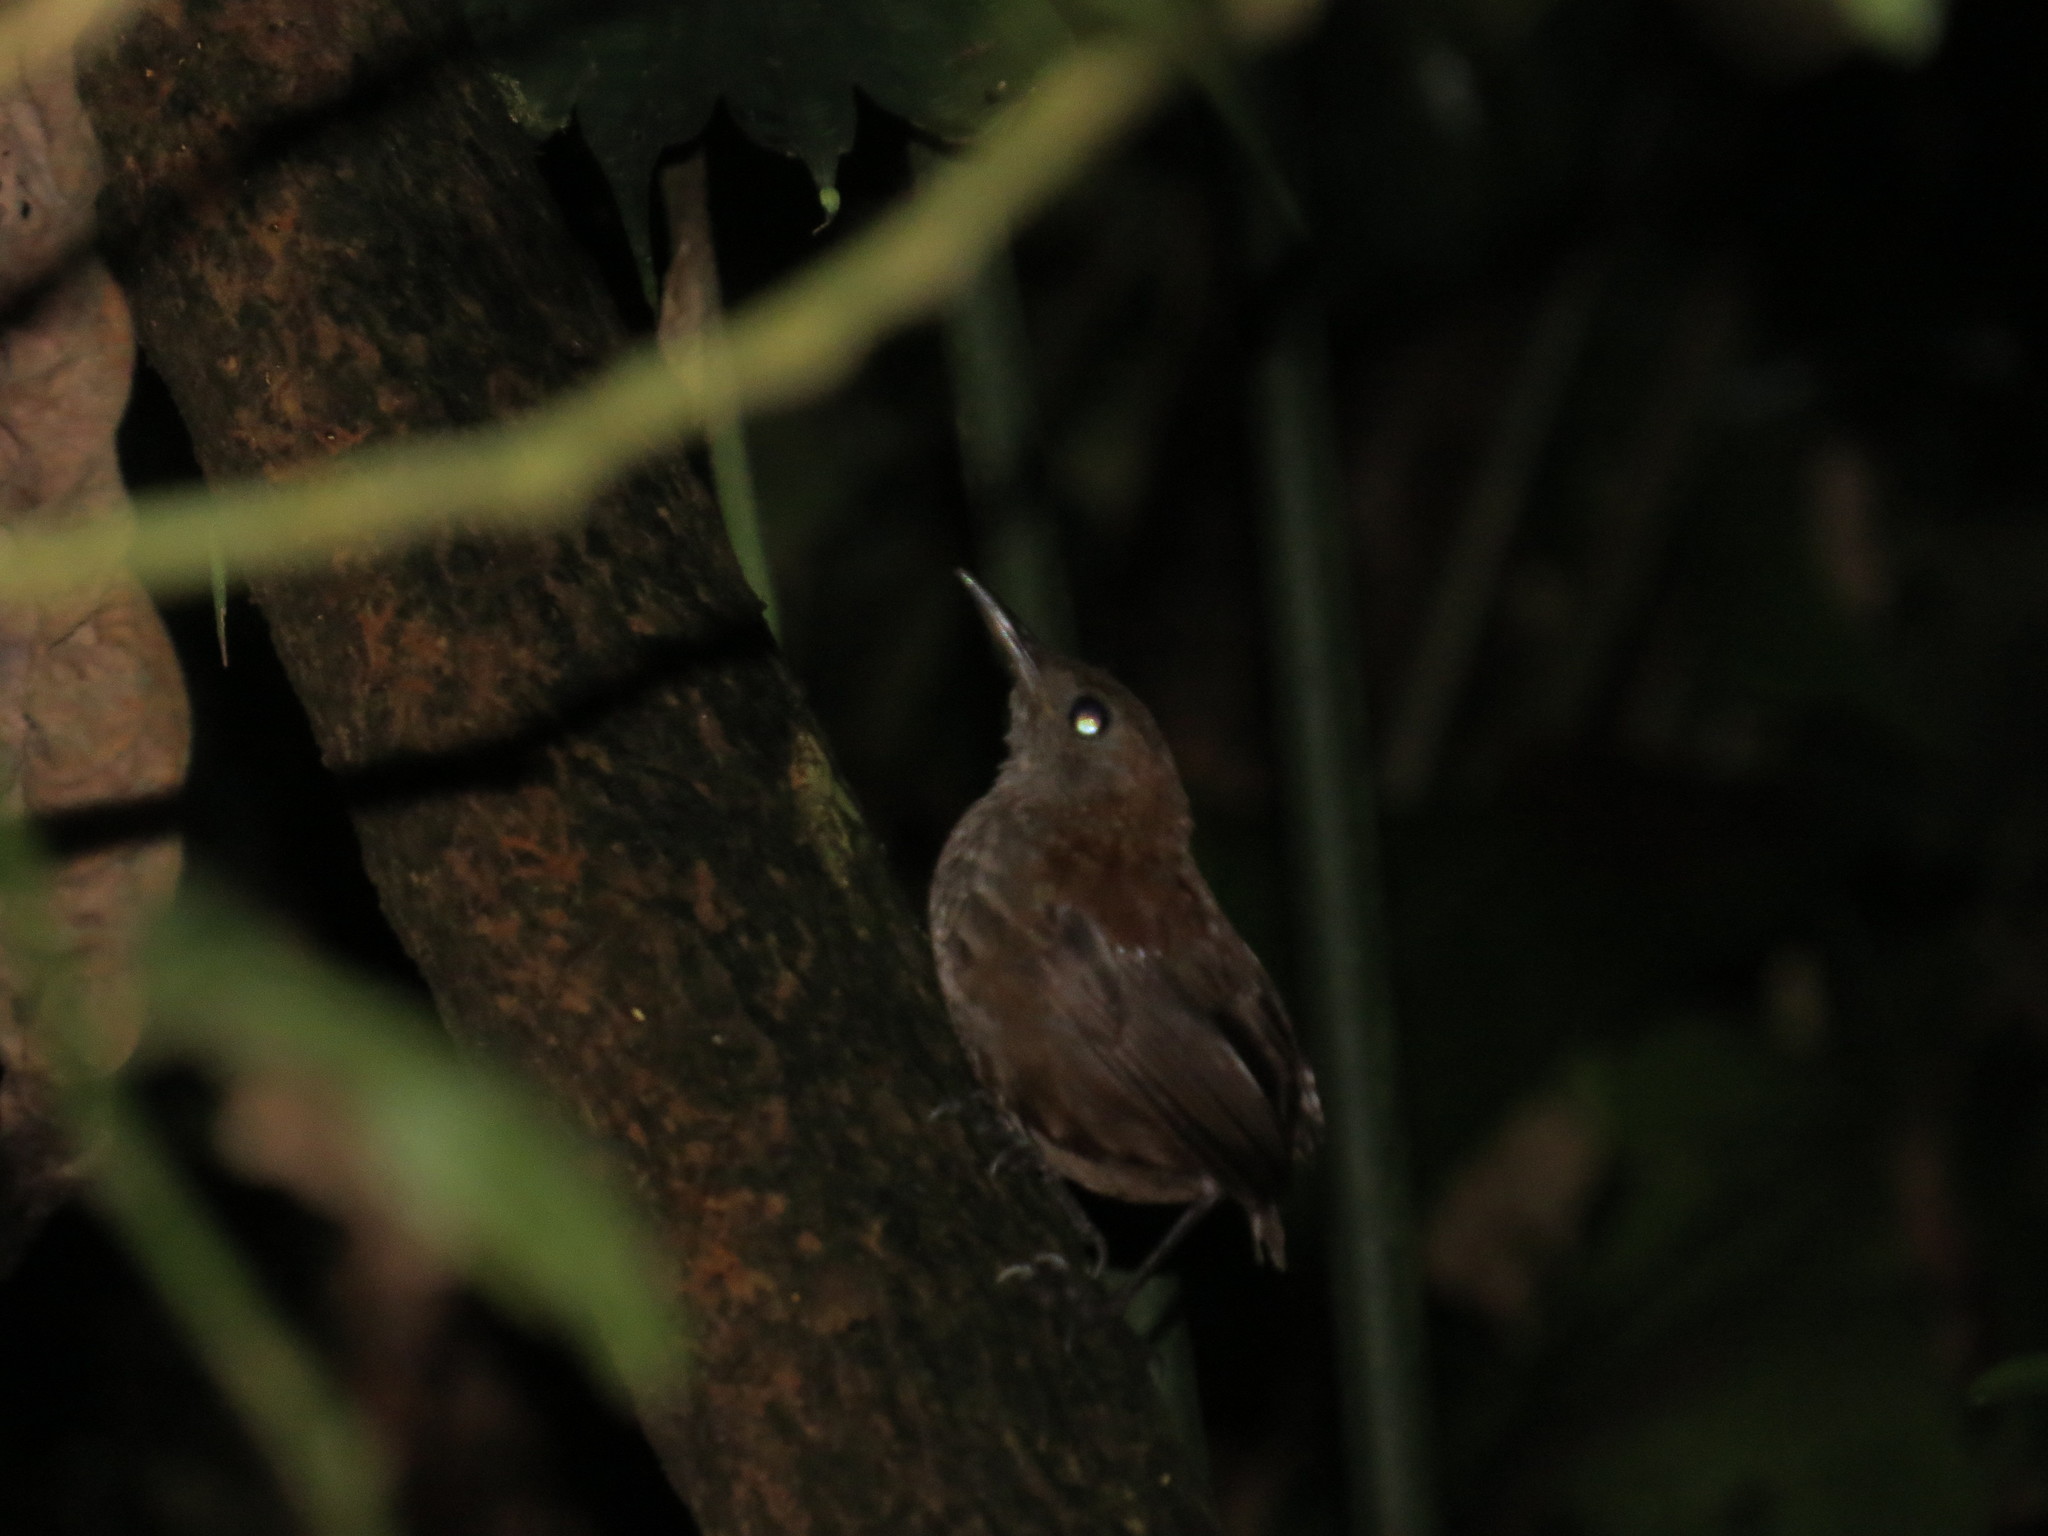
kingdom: Animalia
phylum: Chordata
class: Aves
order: Passeriformes
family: Troglodytidae
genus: Microcerculus
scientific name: Microcerculus marginatus
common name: Southern nightingale-wren
